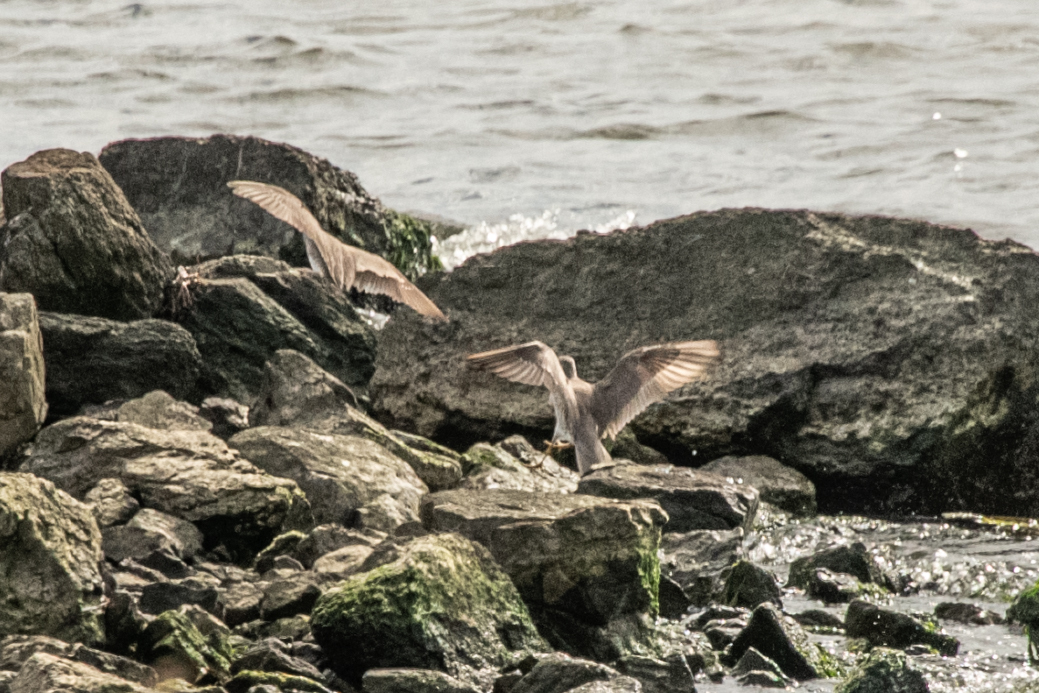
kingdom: Animalia
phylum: Chordata
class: Aves
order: Charadriiformes
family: Scolopacidae
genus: Tringa
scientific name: Tringa brevipes
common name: Grey-tailed tattler
